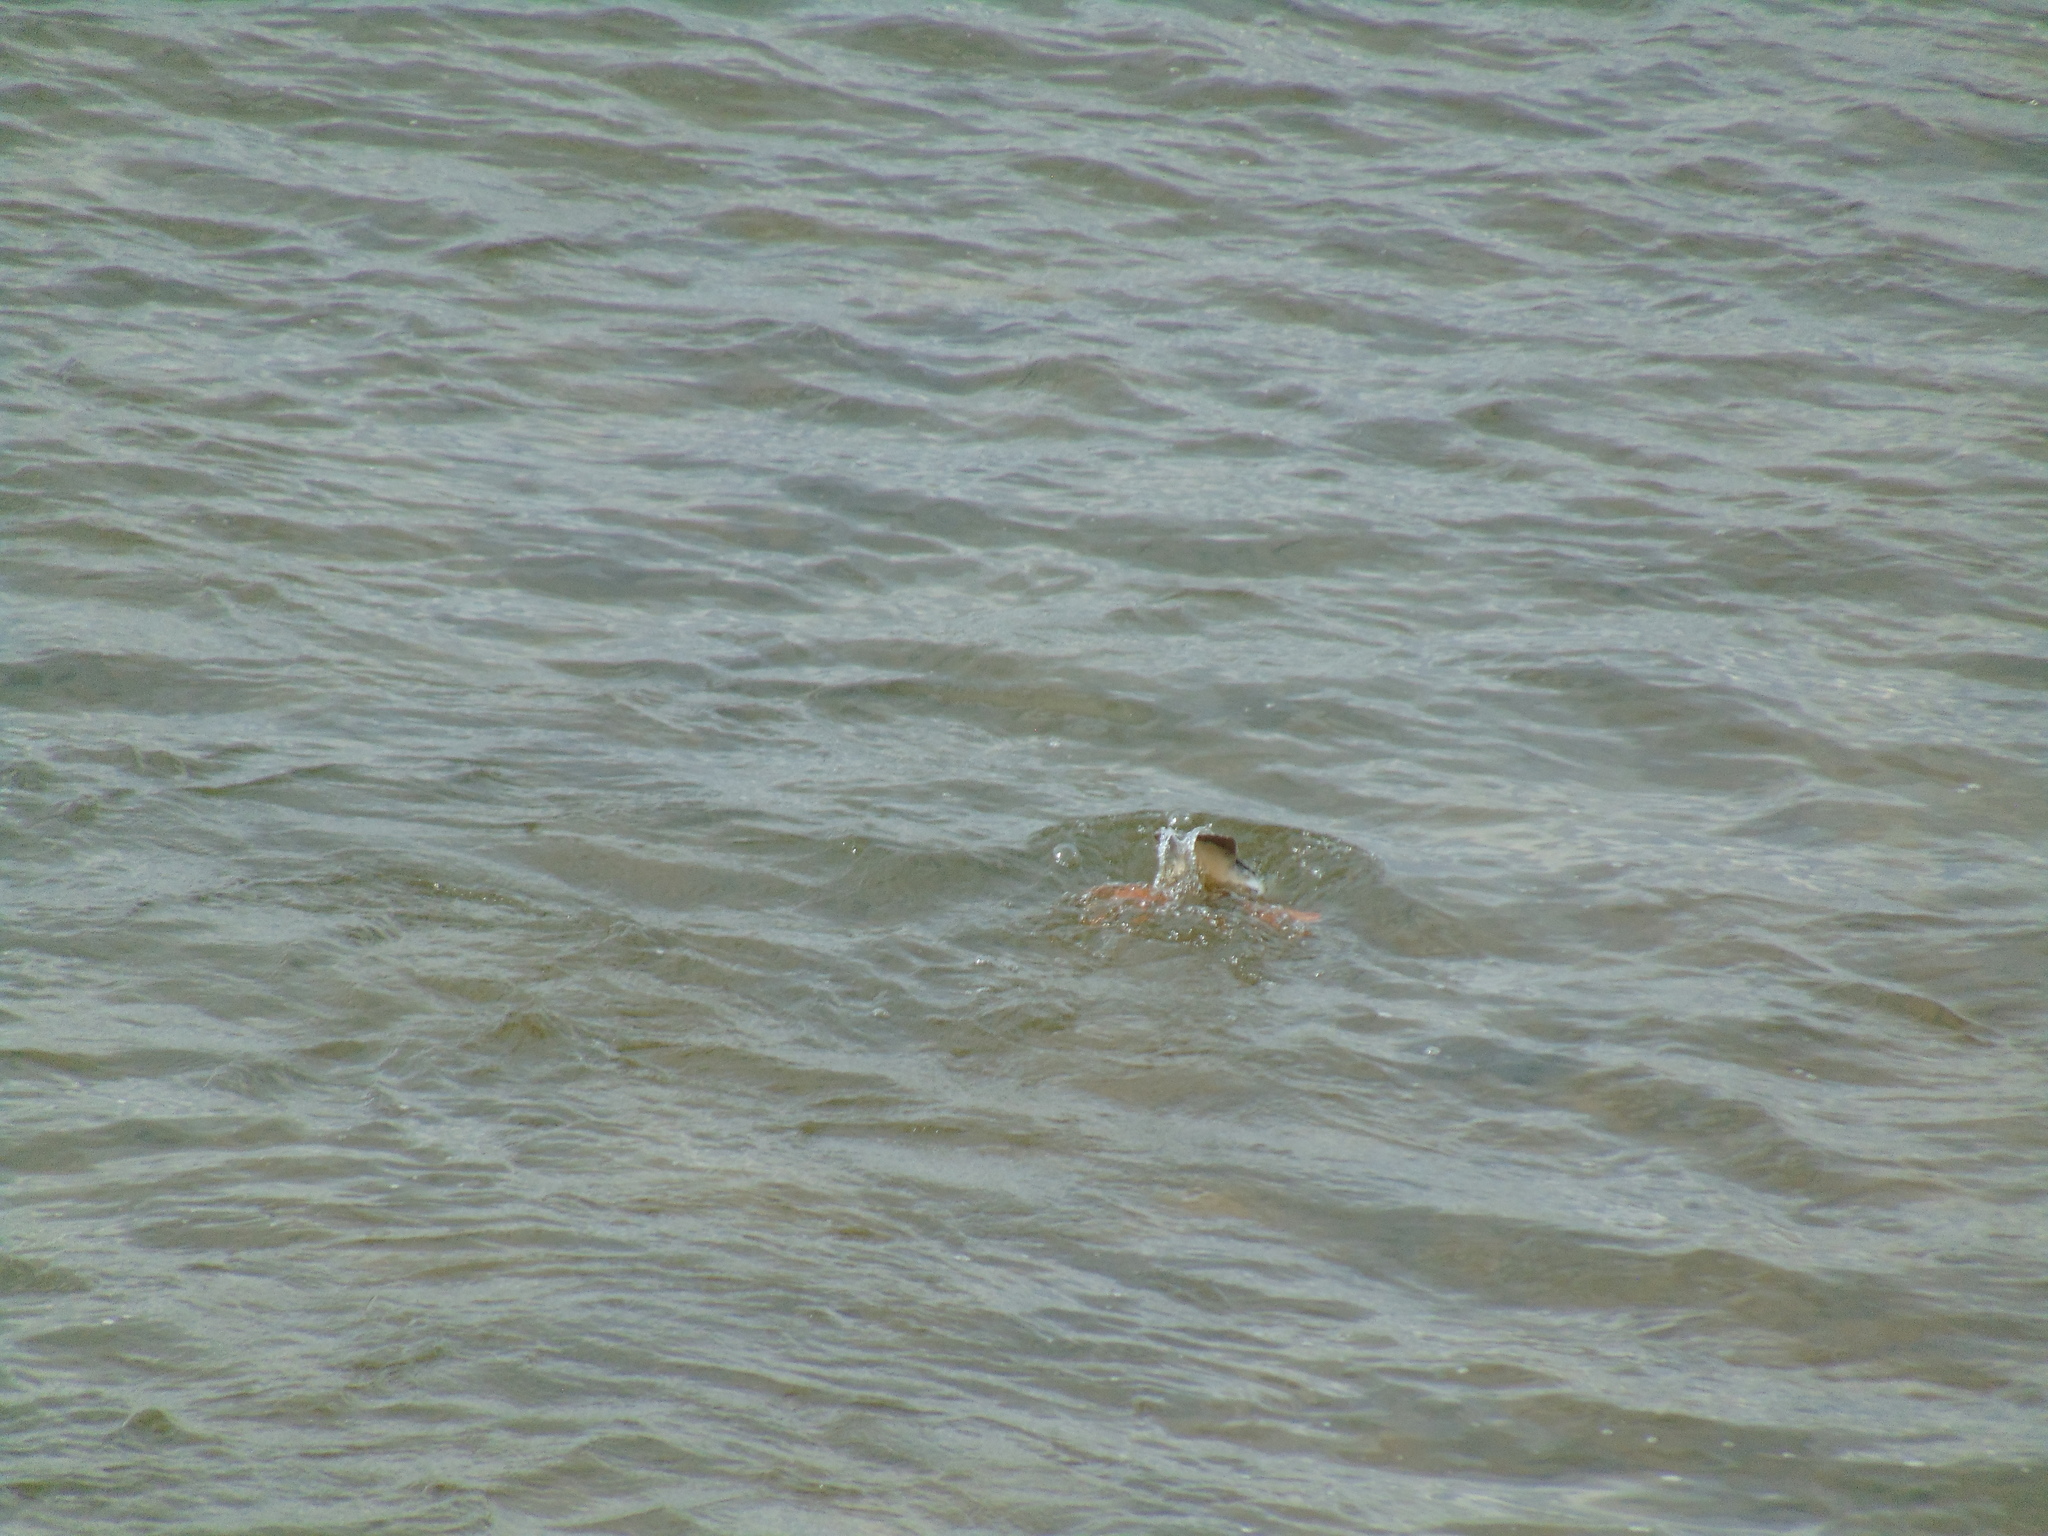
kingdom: Animalia
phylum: Chordata
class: Aves
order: Anseriformes
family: Anatidae
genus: Mergus
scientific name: Mergus merganser
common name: Common merganser
